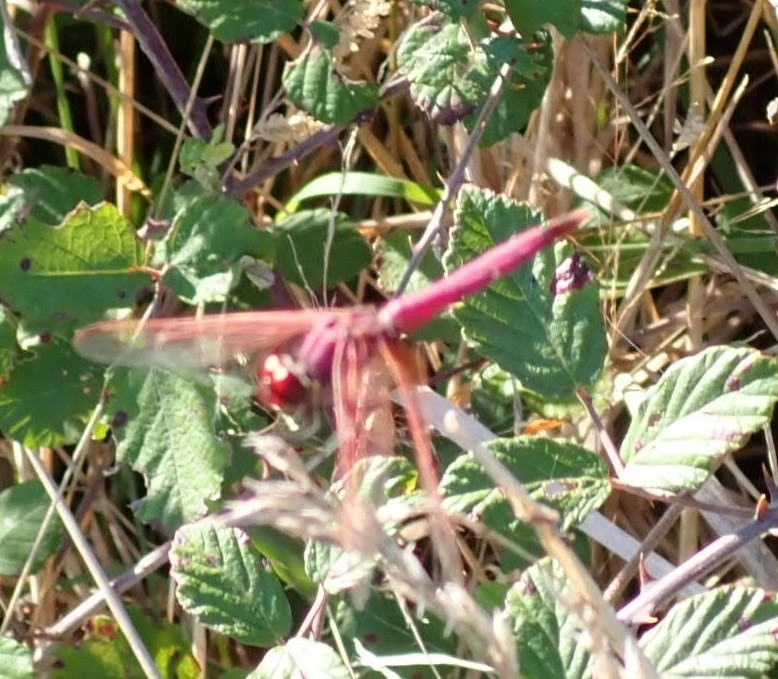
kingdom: Animalia
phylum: Arthropoda
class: Insecta
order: Odonata
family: Libellulidae
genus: Trithemis
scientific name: Trithemis annulata
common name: Violet dropwing
